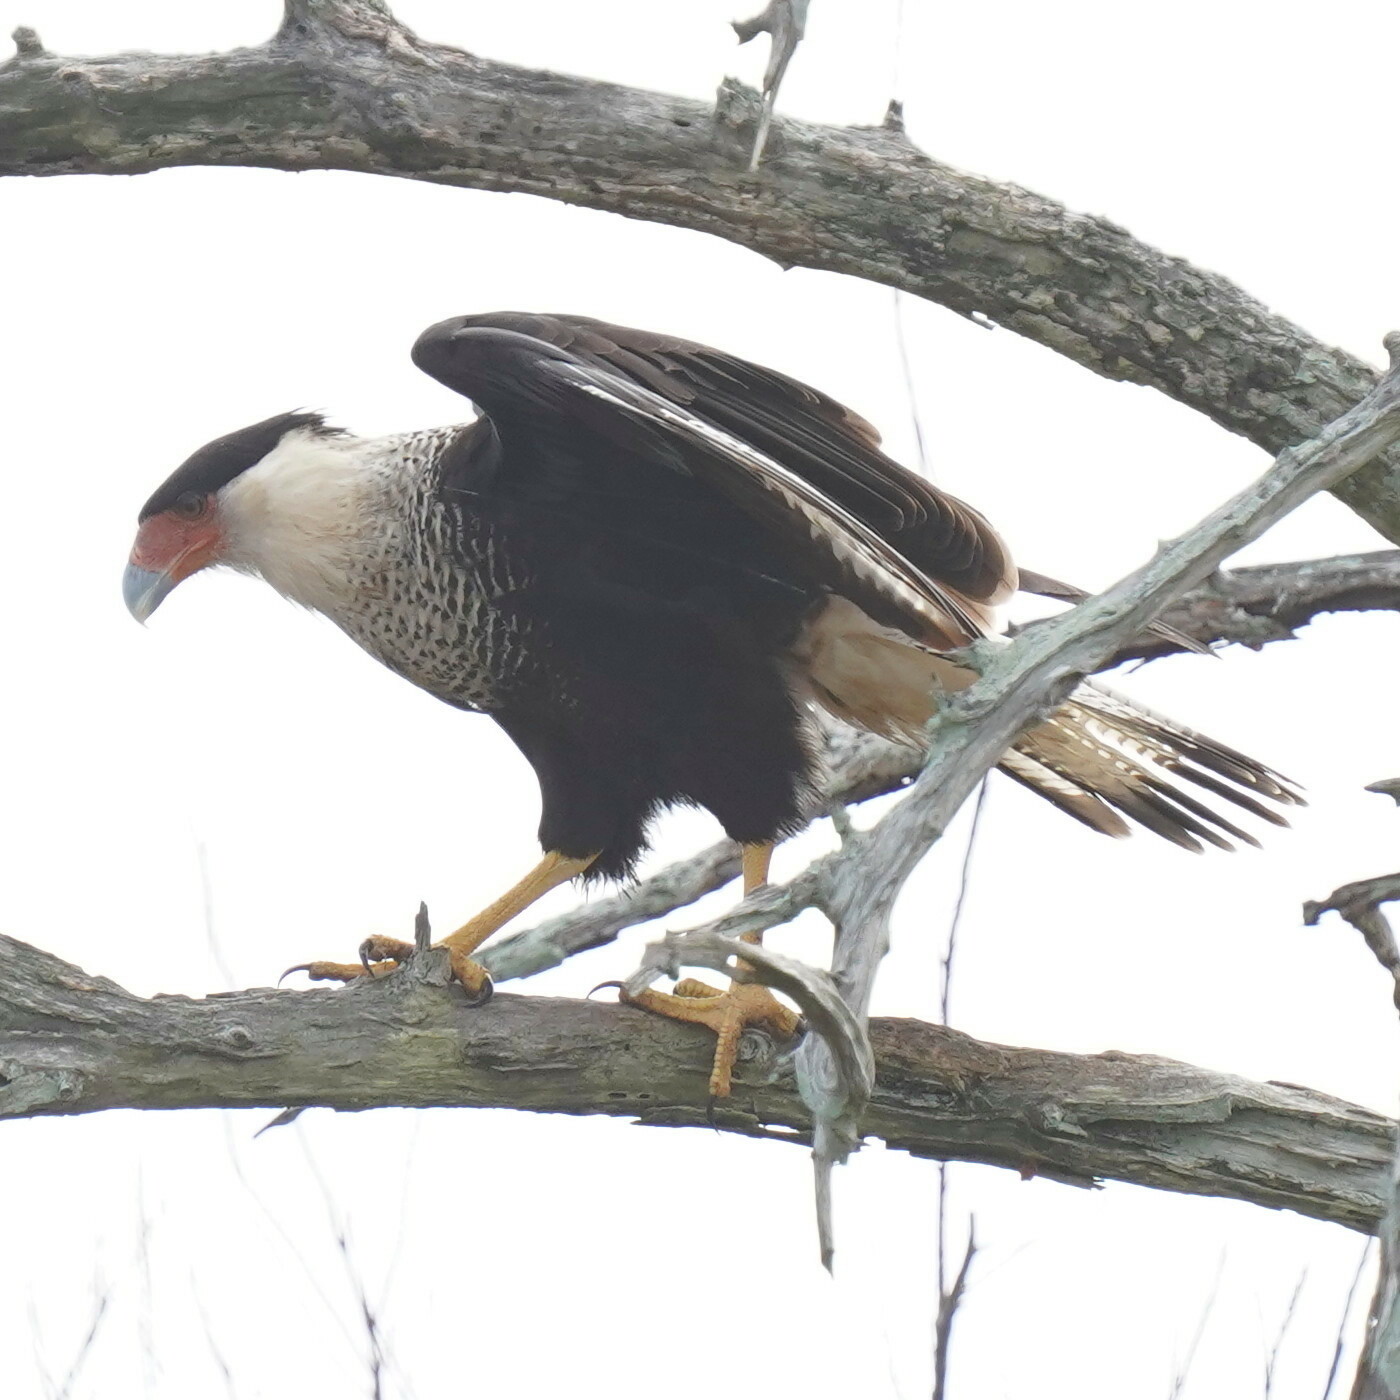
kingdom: Animalia
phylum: Chordata
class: Aves
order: Falconiformes
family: Falconidae
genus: Caracara
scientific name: Caracara plancus
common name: Southern caracara
